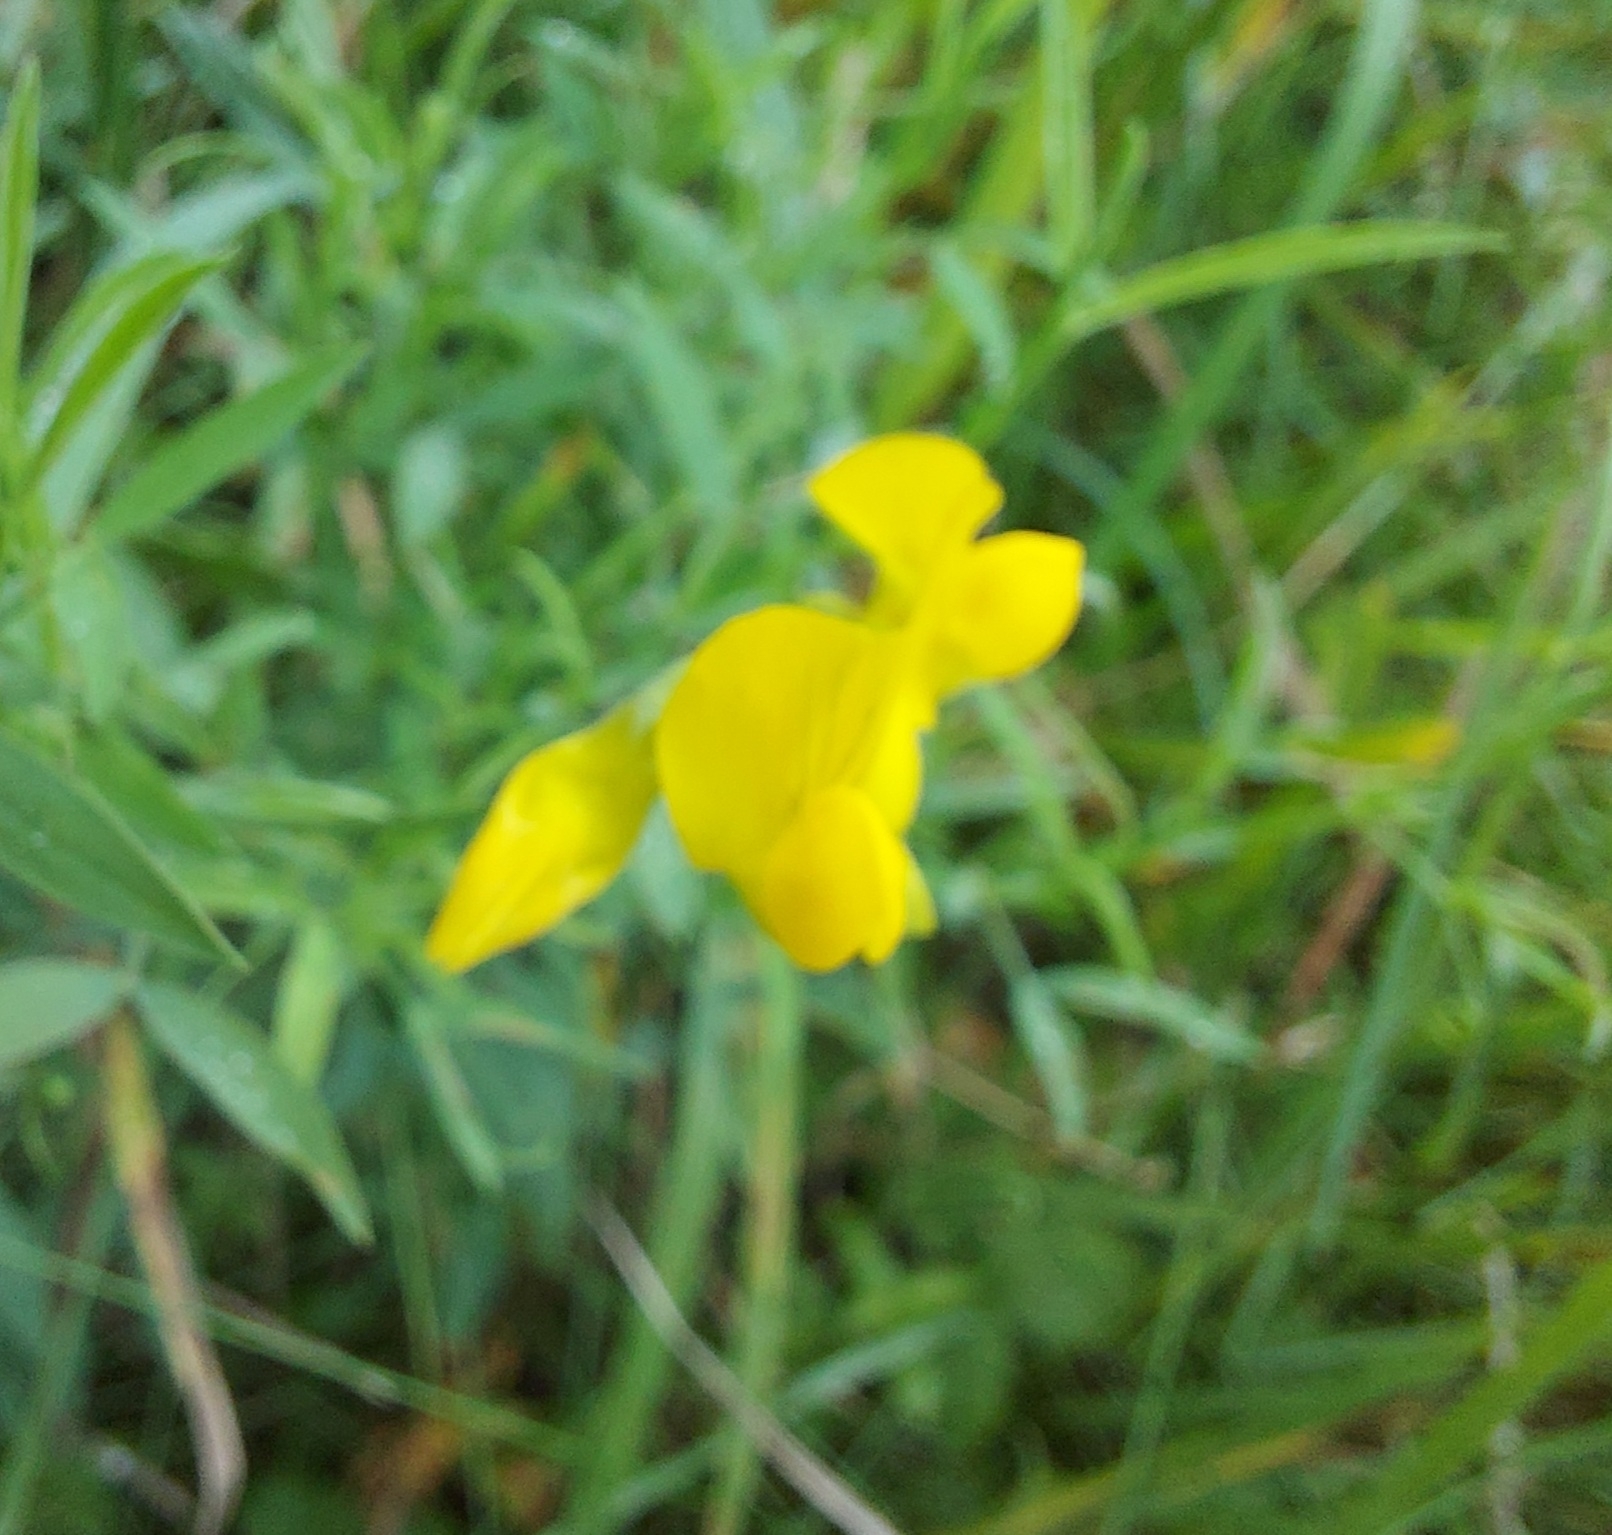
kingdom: Plantae
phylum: Tracheophyta
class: Magnoliopsida
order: Fabales
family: Fabaceae
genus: Lathyrus
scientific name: Lathyrus pratensis
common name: Meadow vetchling
